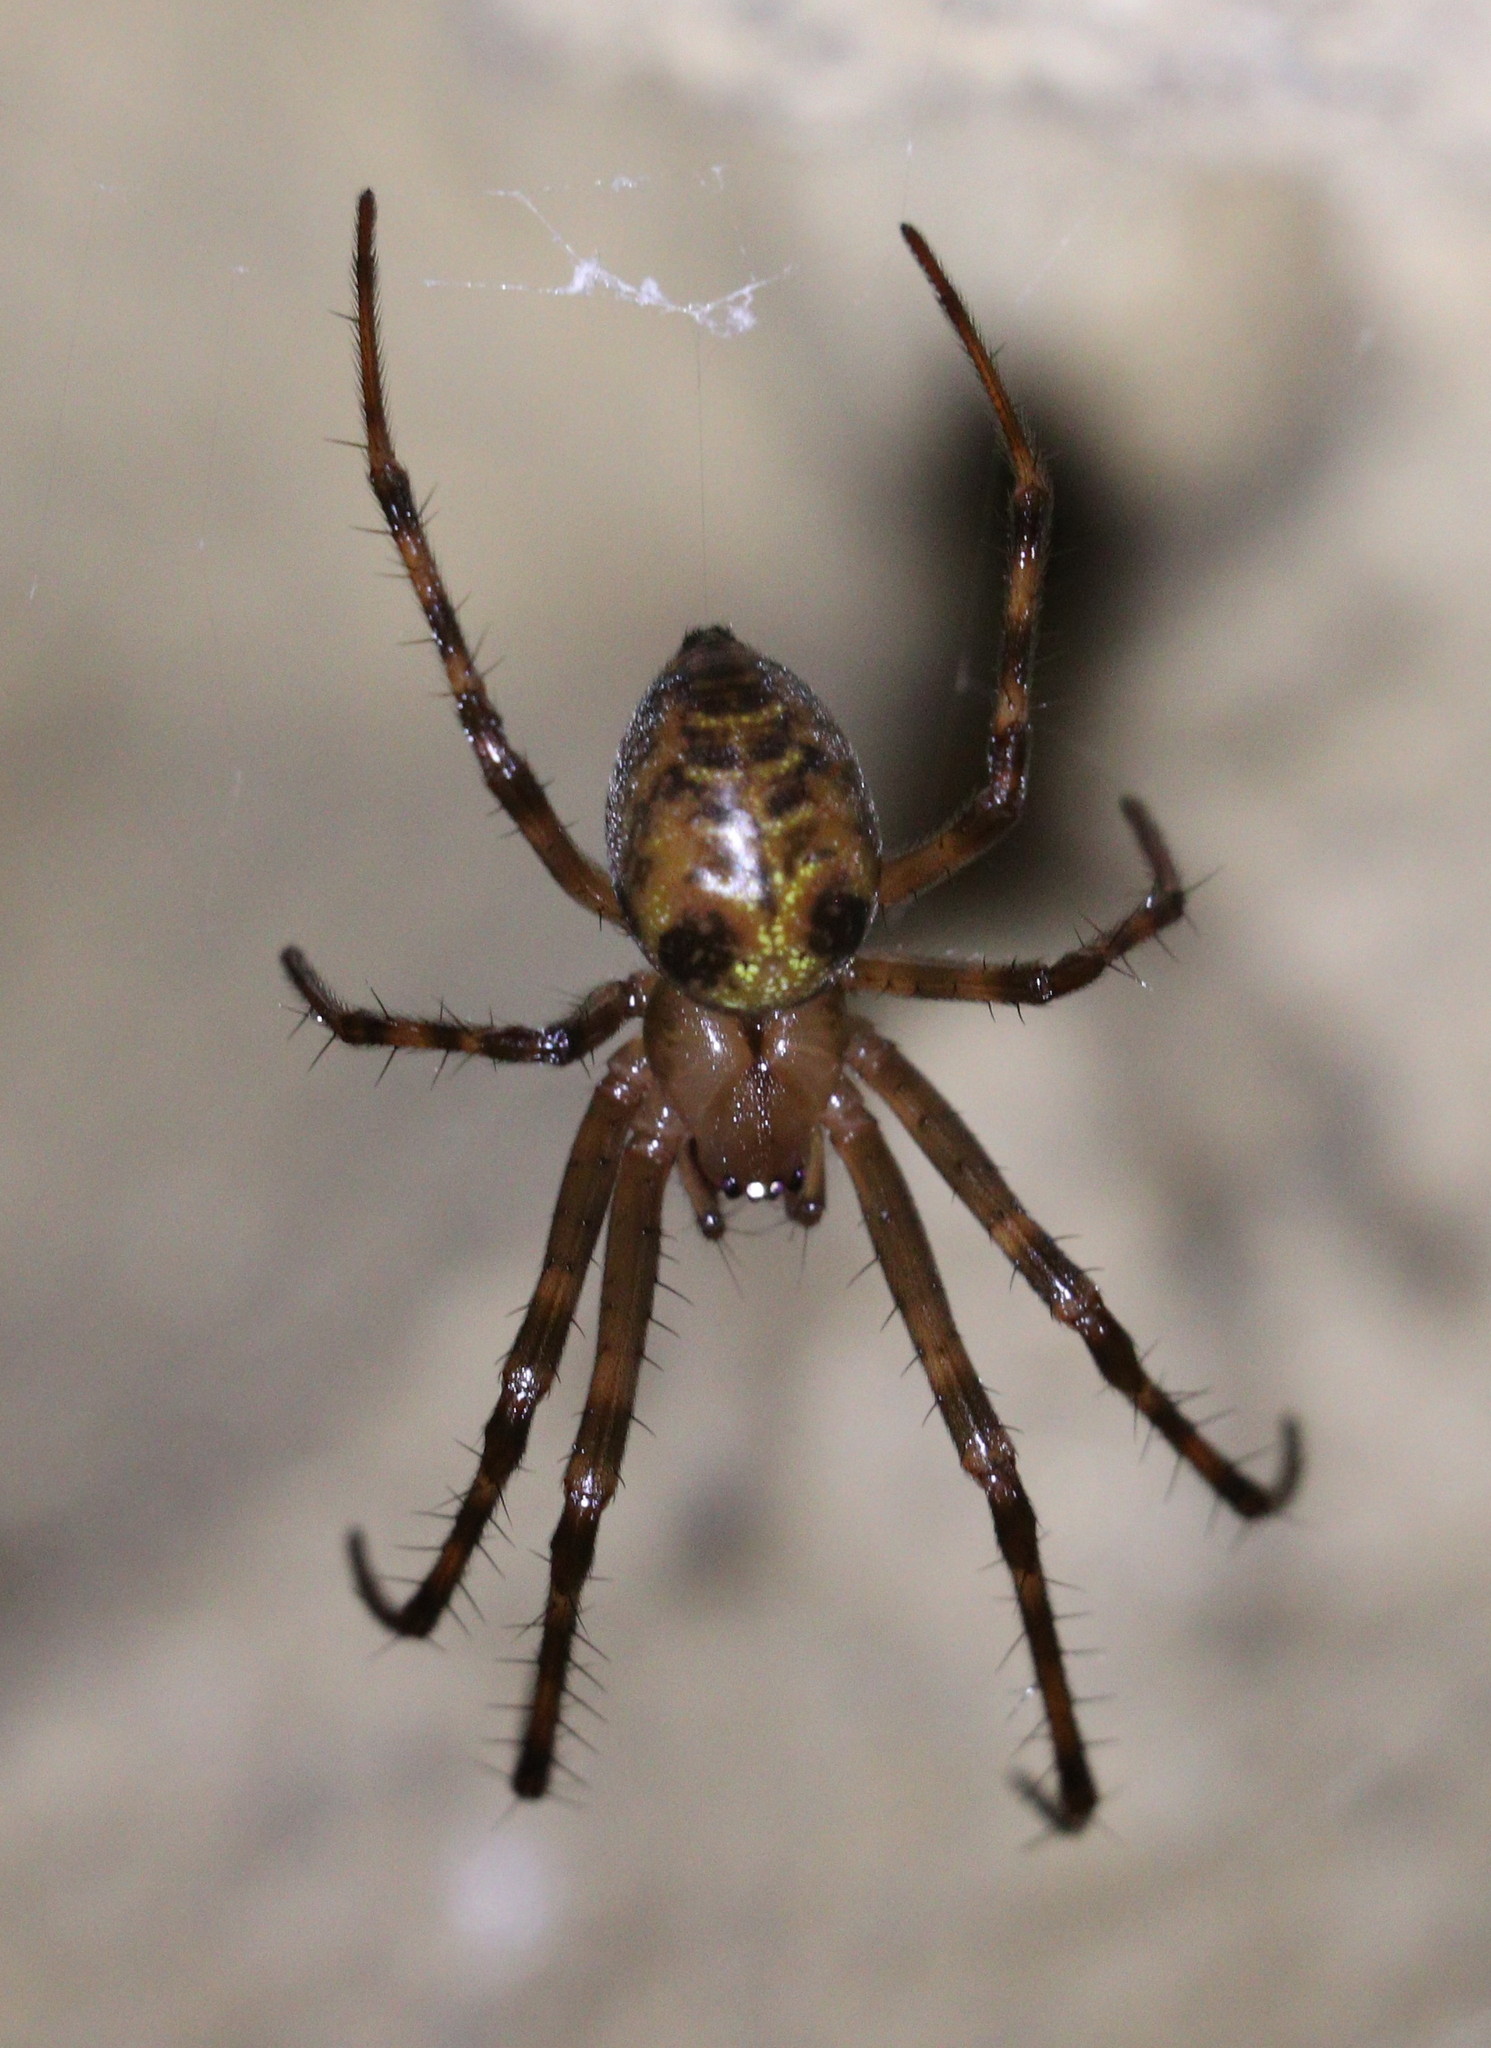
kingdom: Animalia
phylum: Arthropoda
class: Arachnida
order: Araneae
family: Tetragnathidae
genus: Meta
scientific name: Meta menardi
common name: Cave spider
